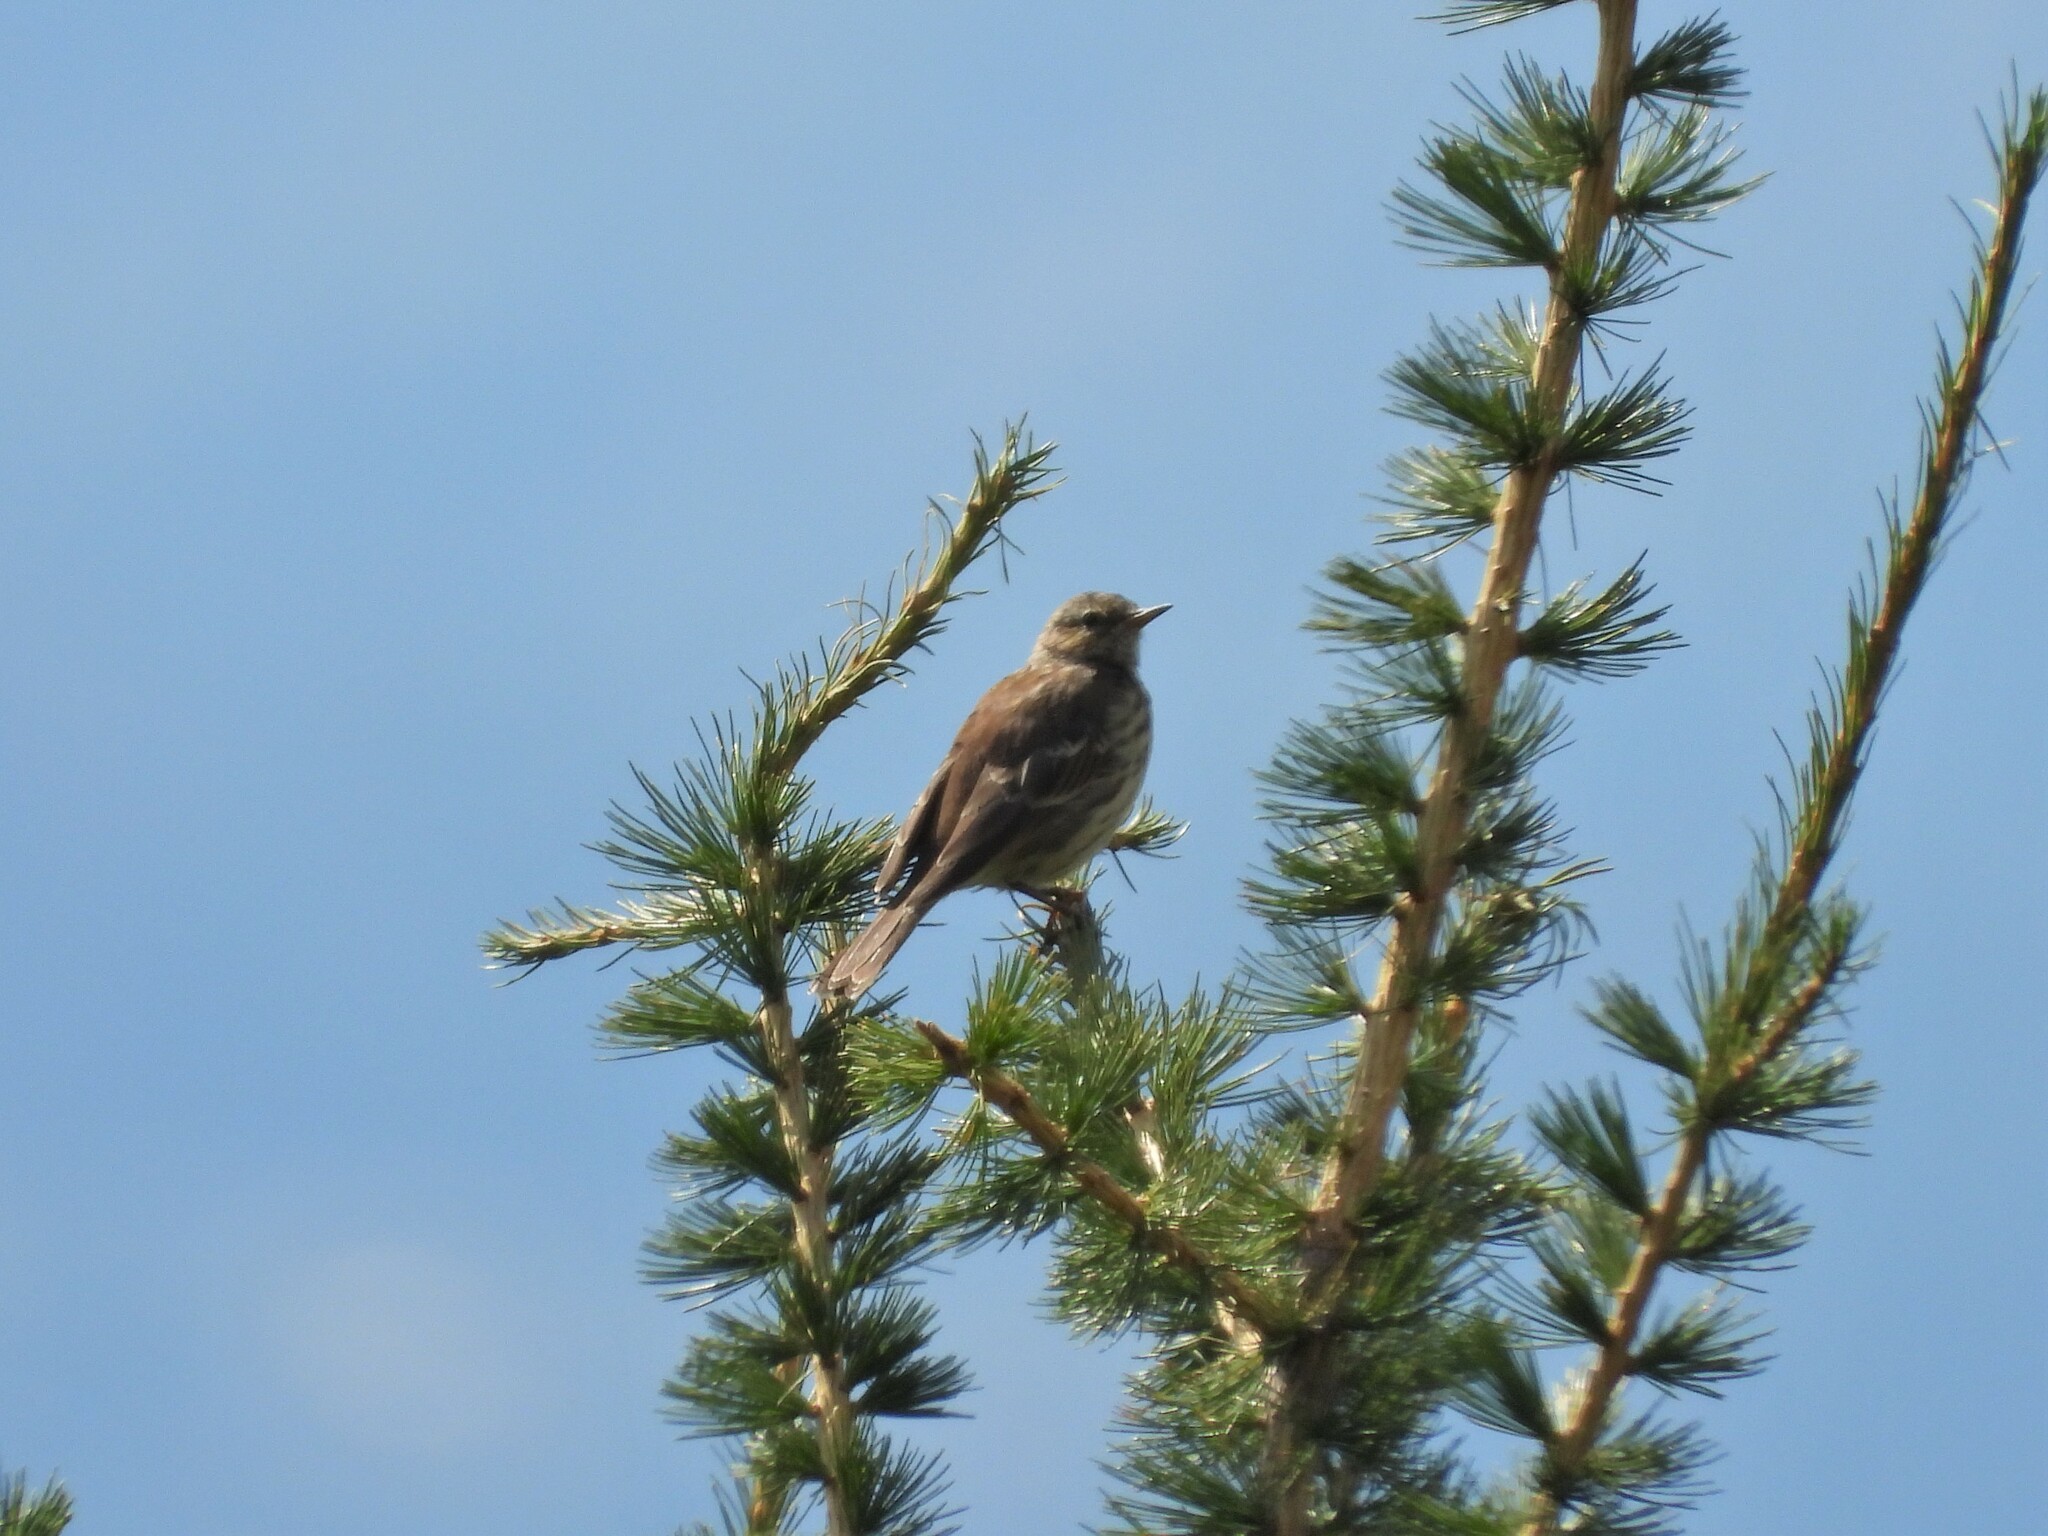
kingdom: Animalia
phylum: Chordata
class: Aves
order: Passeriformes
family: Motacillidae
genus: Anthus
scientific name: Anthus spinoletta
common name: Water pipit
